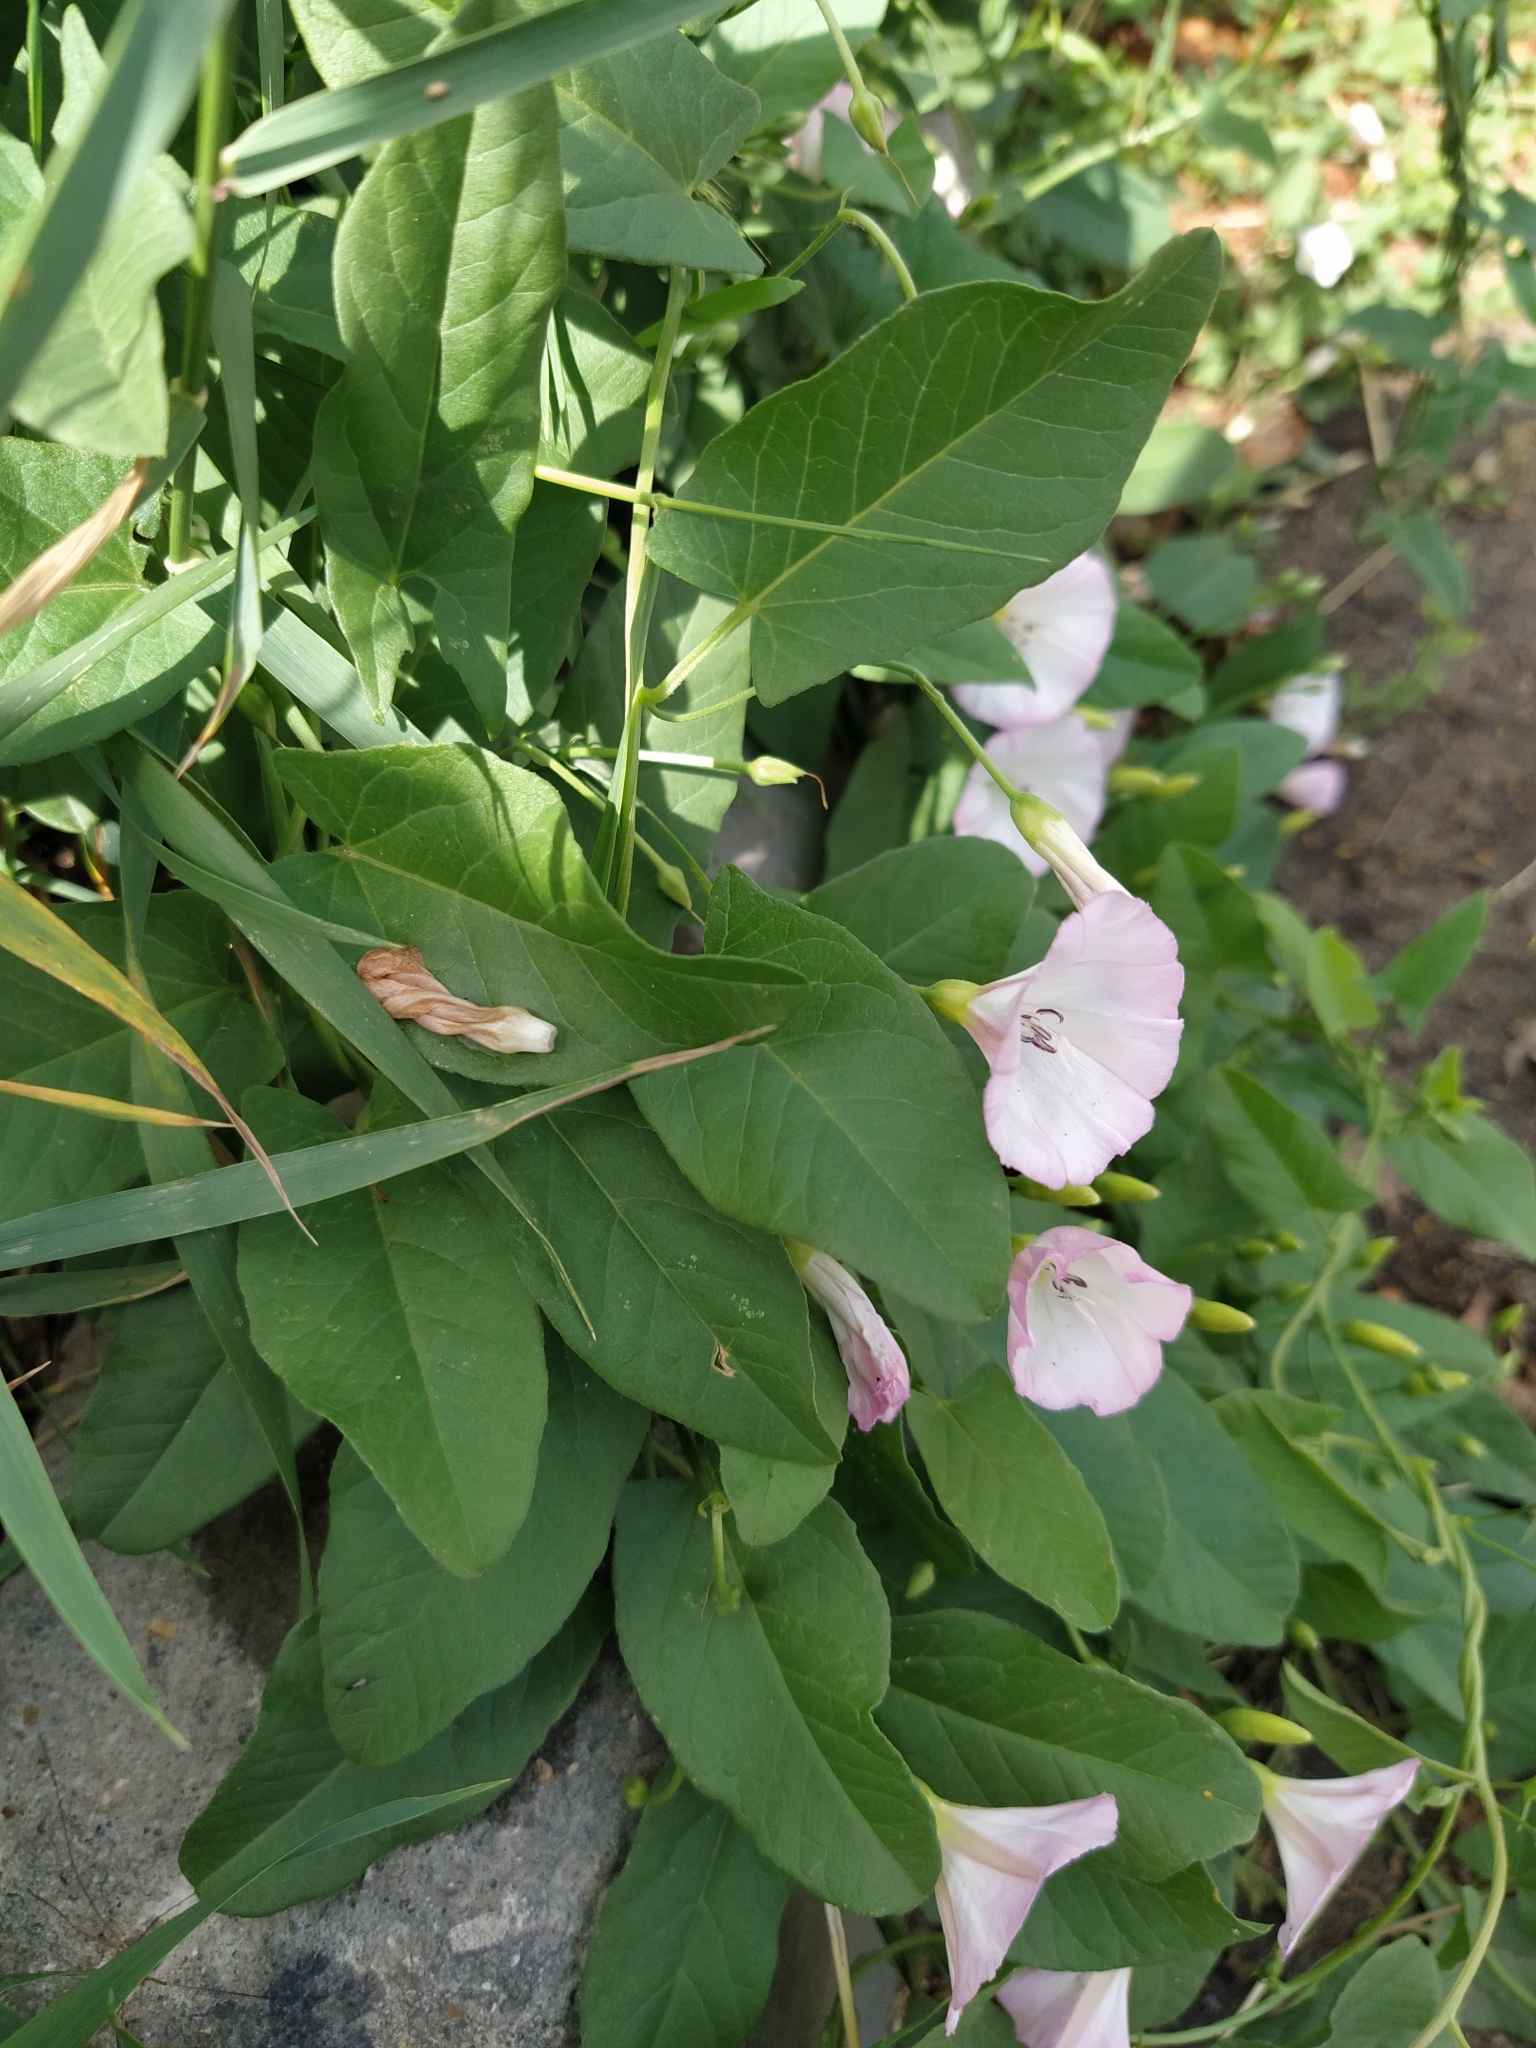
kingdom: Plantae
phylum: Tracheophyta
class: Magnoliopsida
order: Solanales
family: Convolvulaceae
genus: Convolvulus
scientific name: Convolvulus arvensis
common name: Field bindweed
